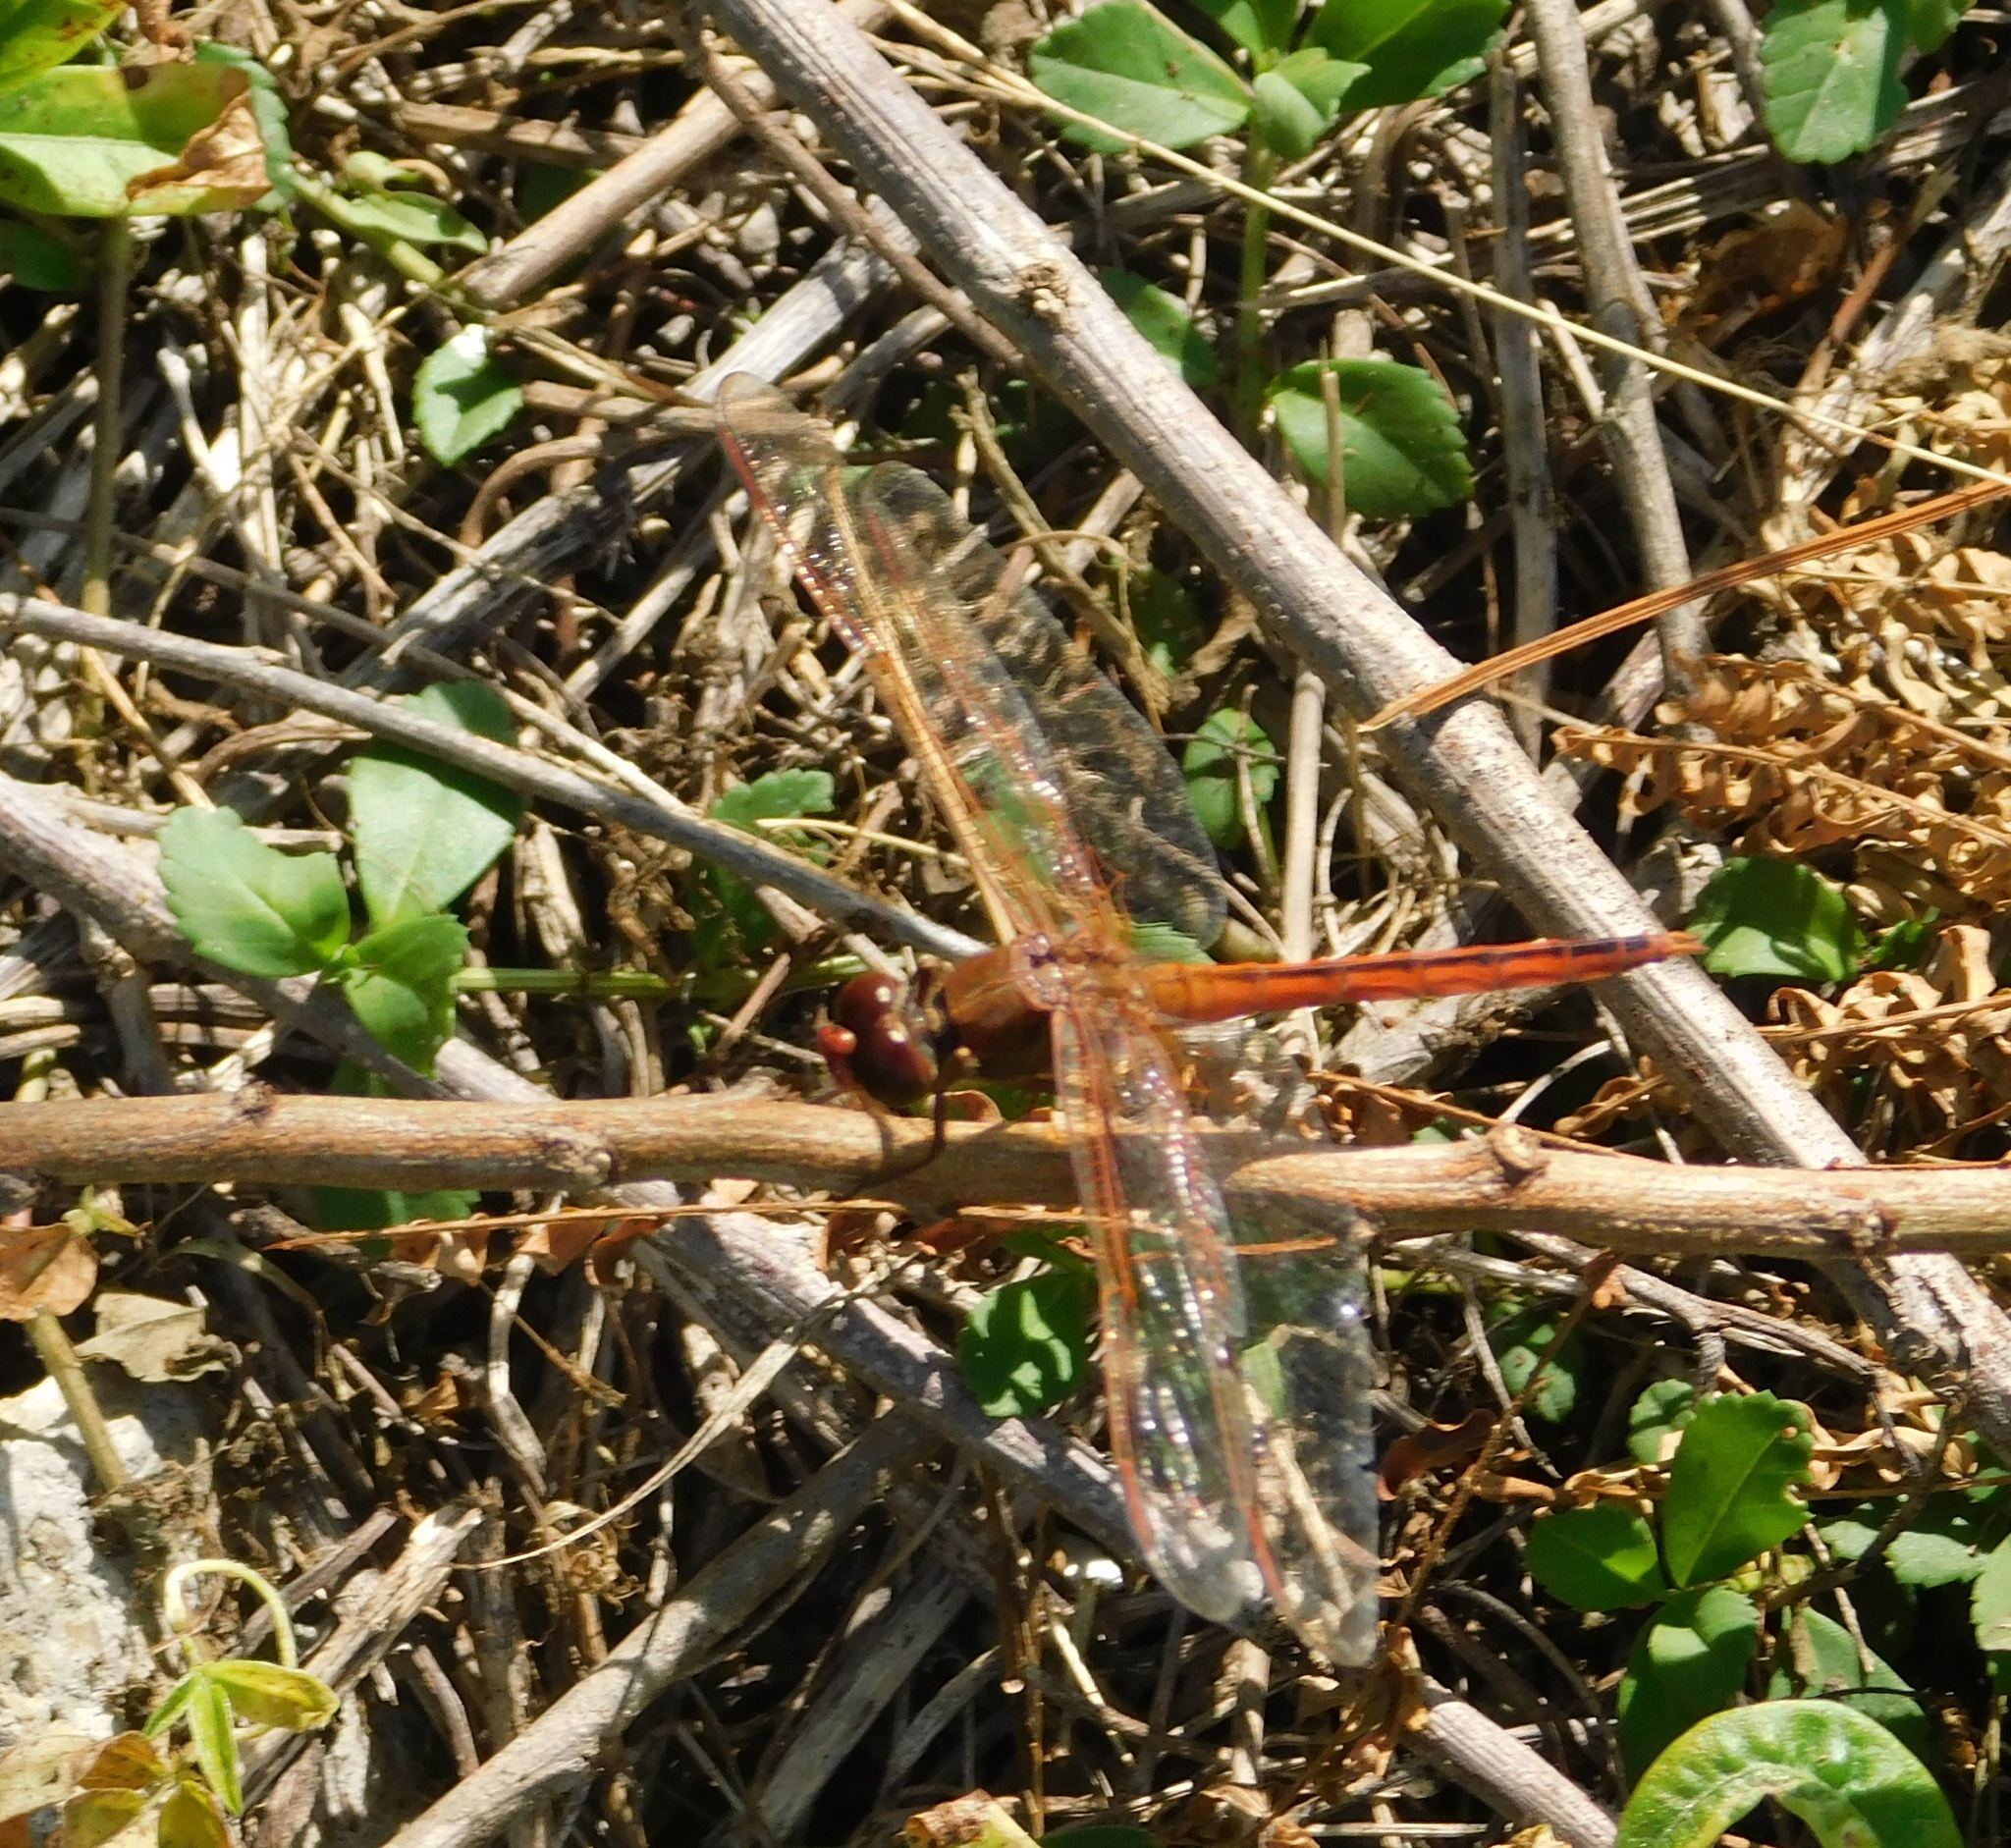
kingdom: Animalia
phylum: Arthropoda
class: Insecta
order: Odonata
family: Libellulidae
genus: Libellula
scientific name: Libellula needhami
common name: Needham's skimmer
